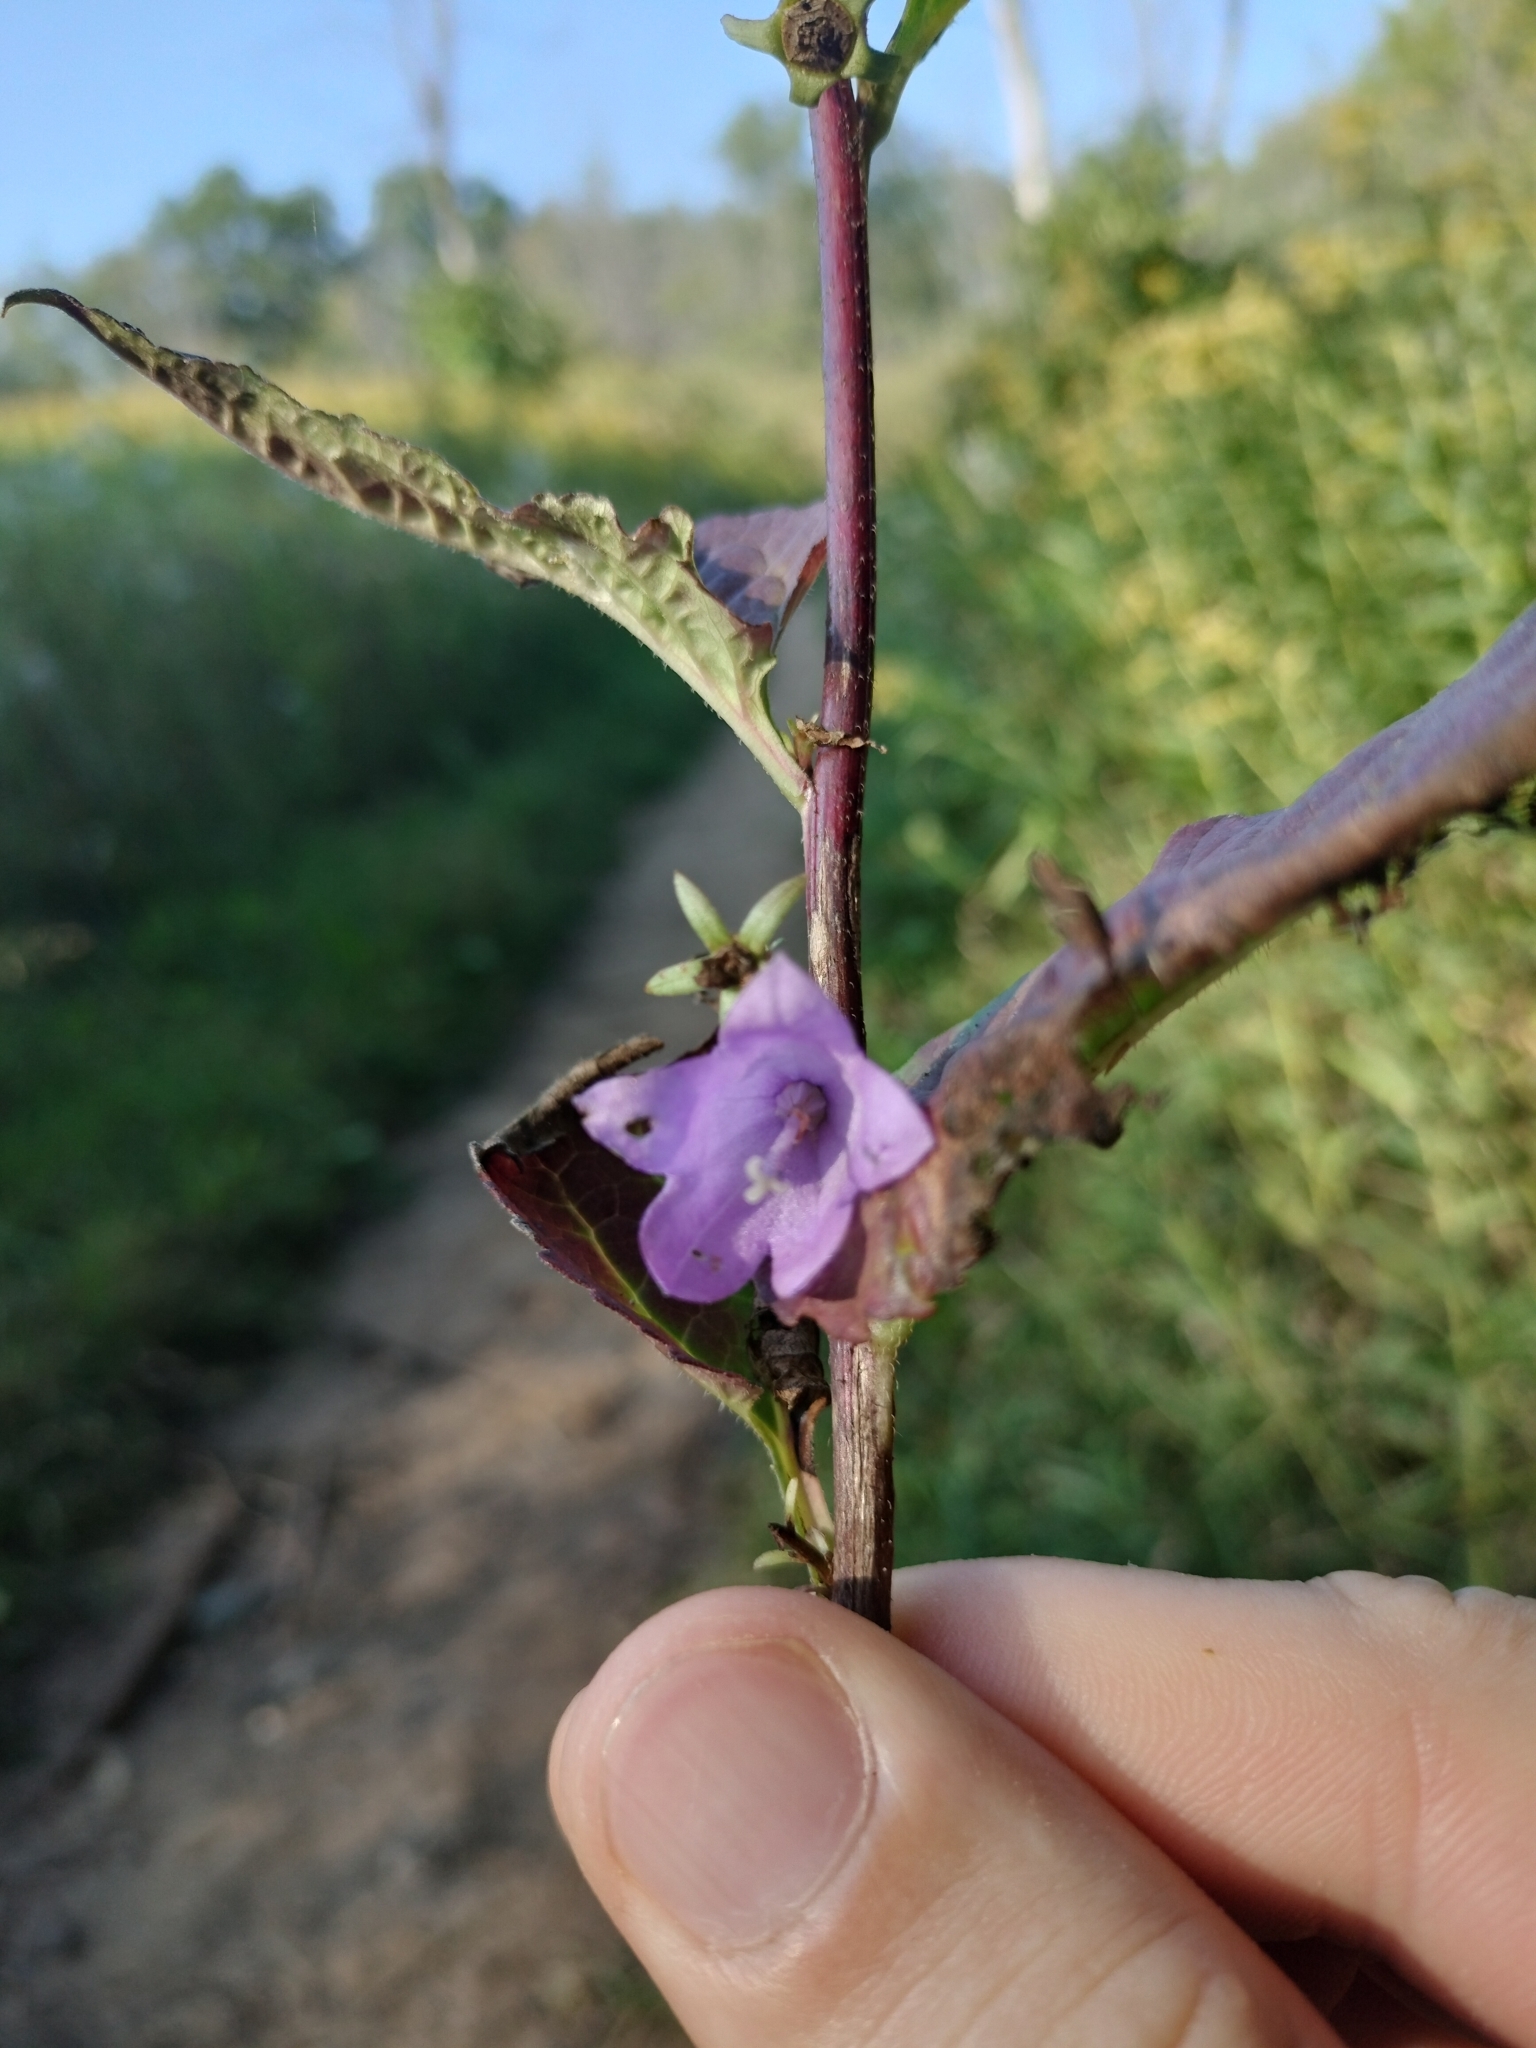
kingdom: Plantae
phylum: Tracheophyta
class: Magnoliopsida
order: Asterales
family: Campanulaceae
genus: Campanula
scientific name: Campanula rapunculoides
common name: Creeping bellflower
